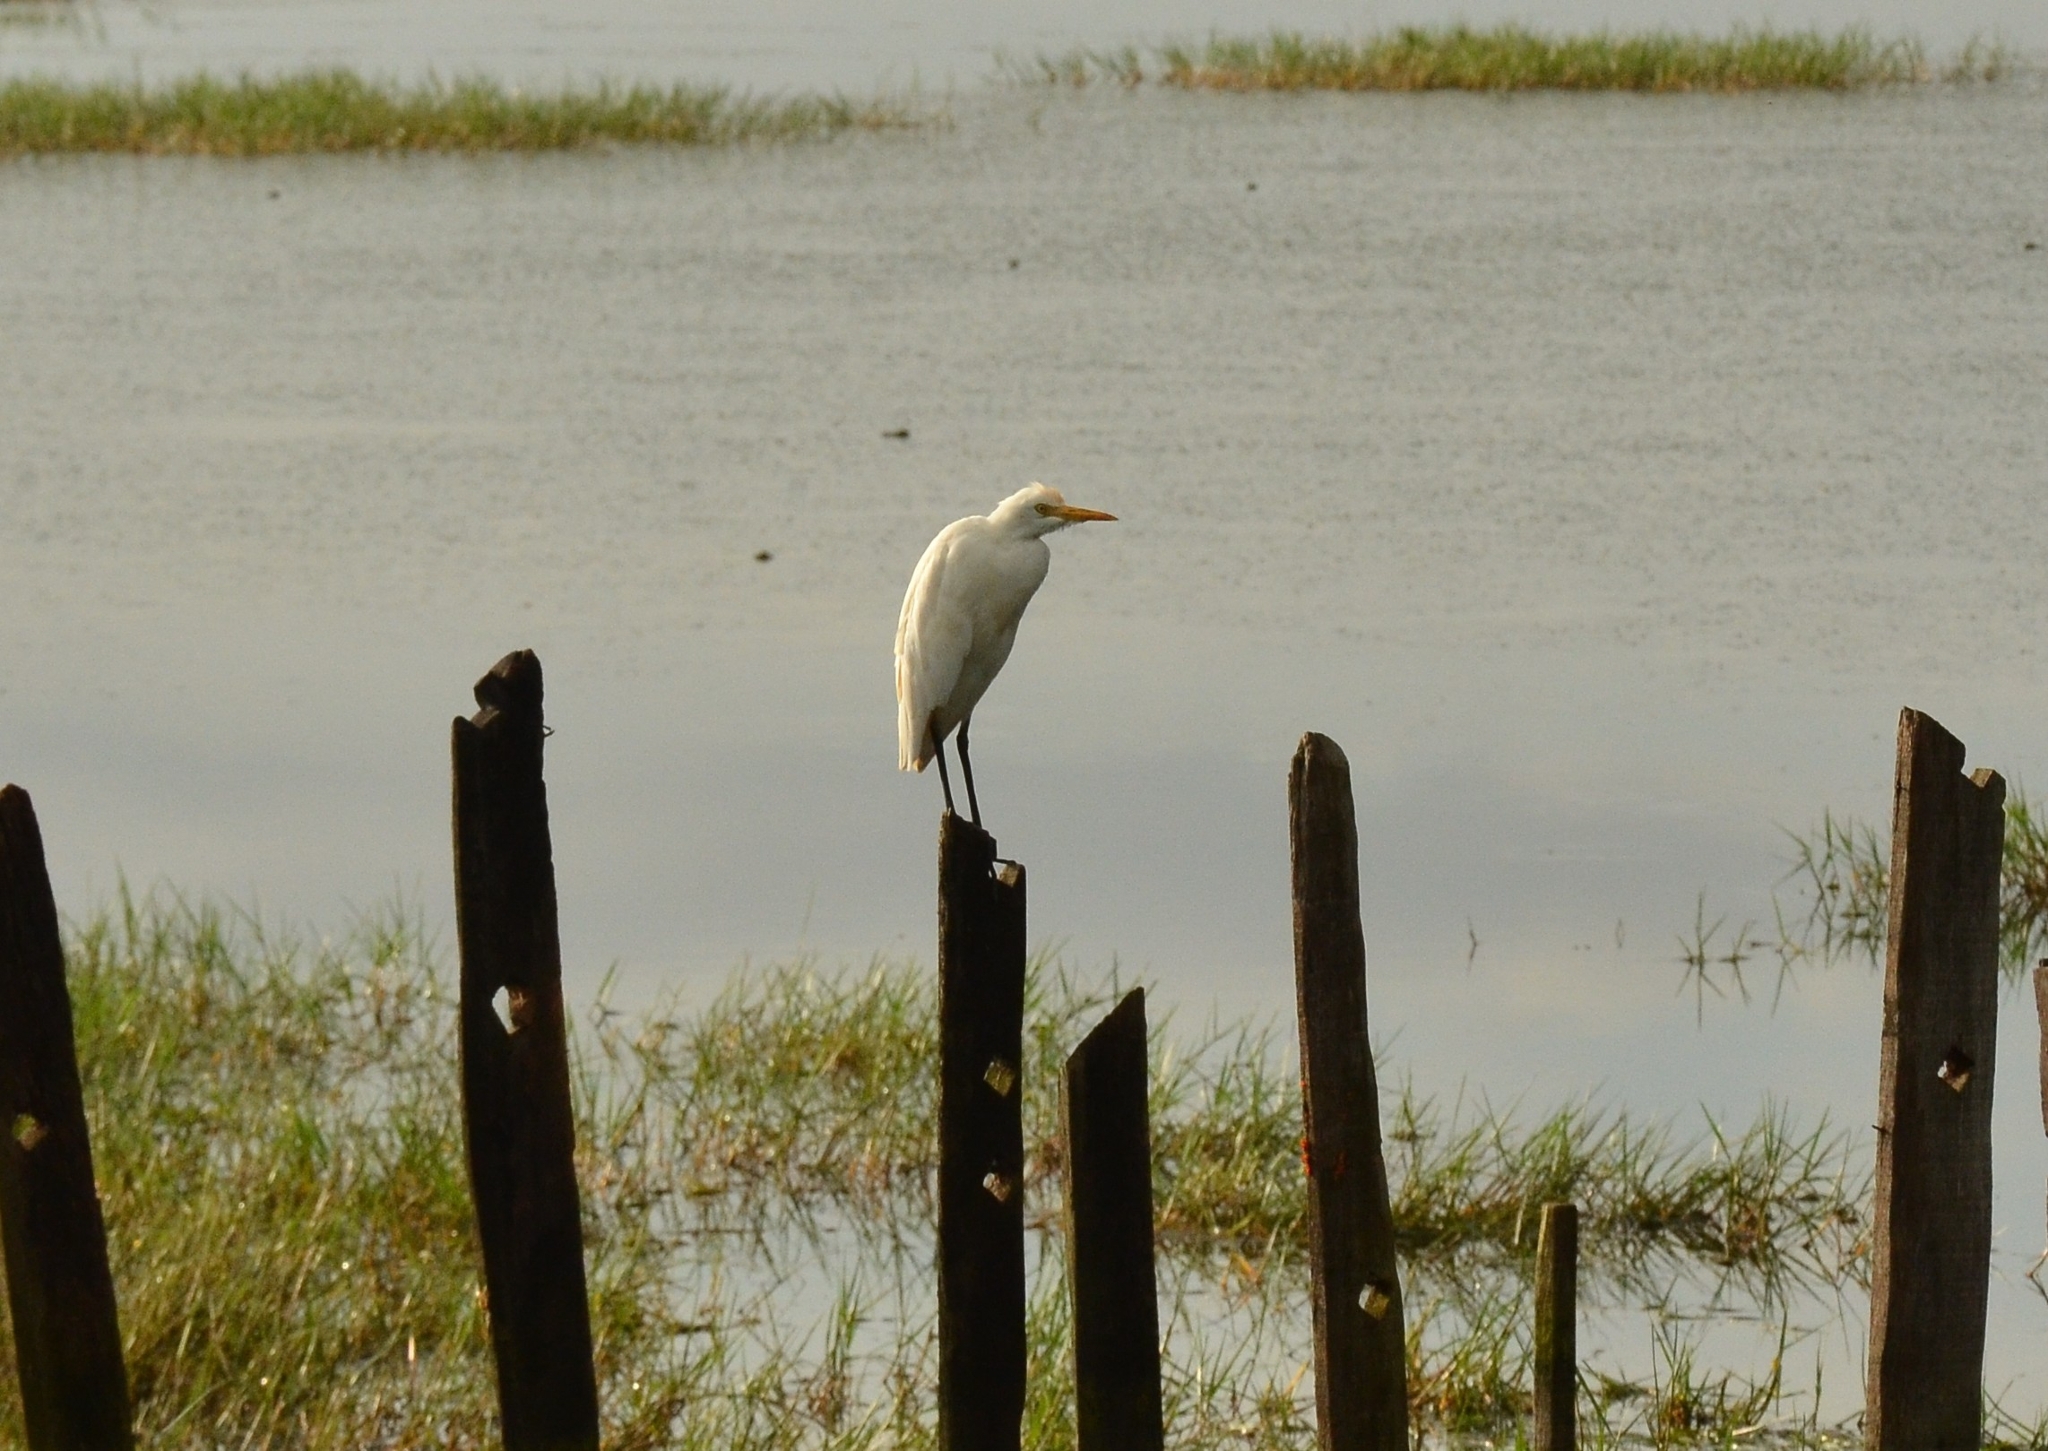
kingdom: Animalia
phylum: Chordata
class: Aves
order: Pelecaniformes
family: Ardeidae
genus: Bubulcus
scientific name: Bubulcus coromandus
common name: Eastern cattle egret
